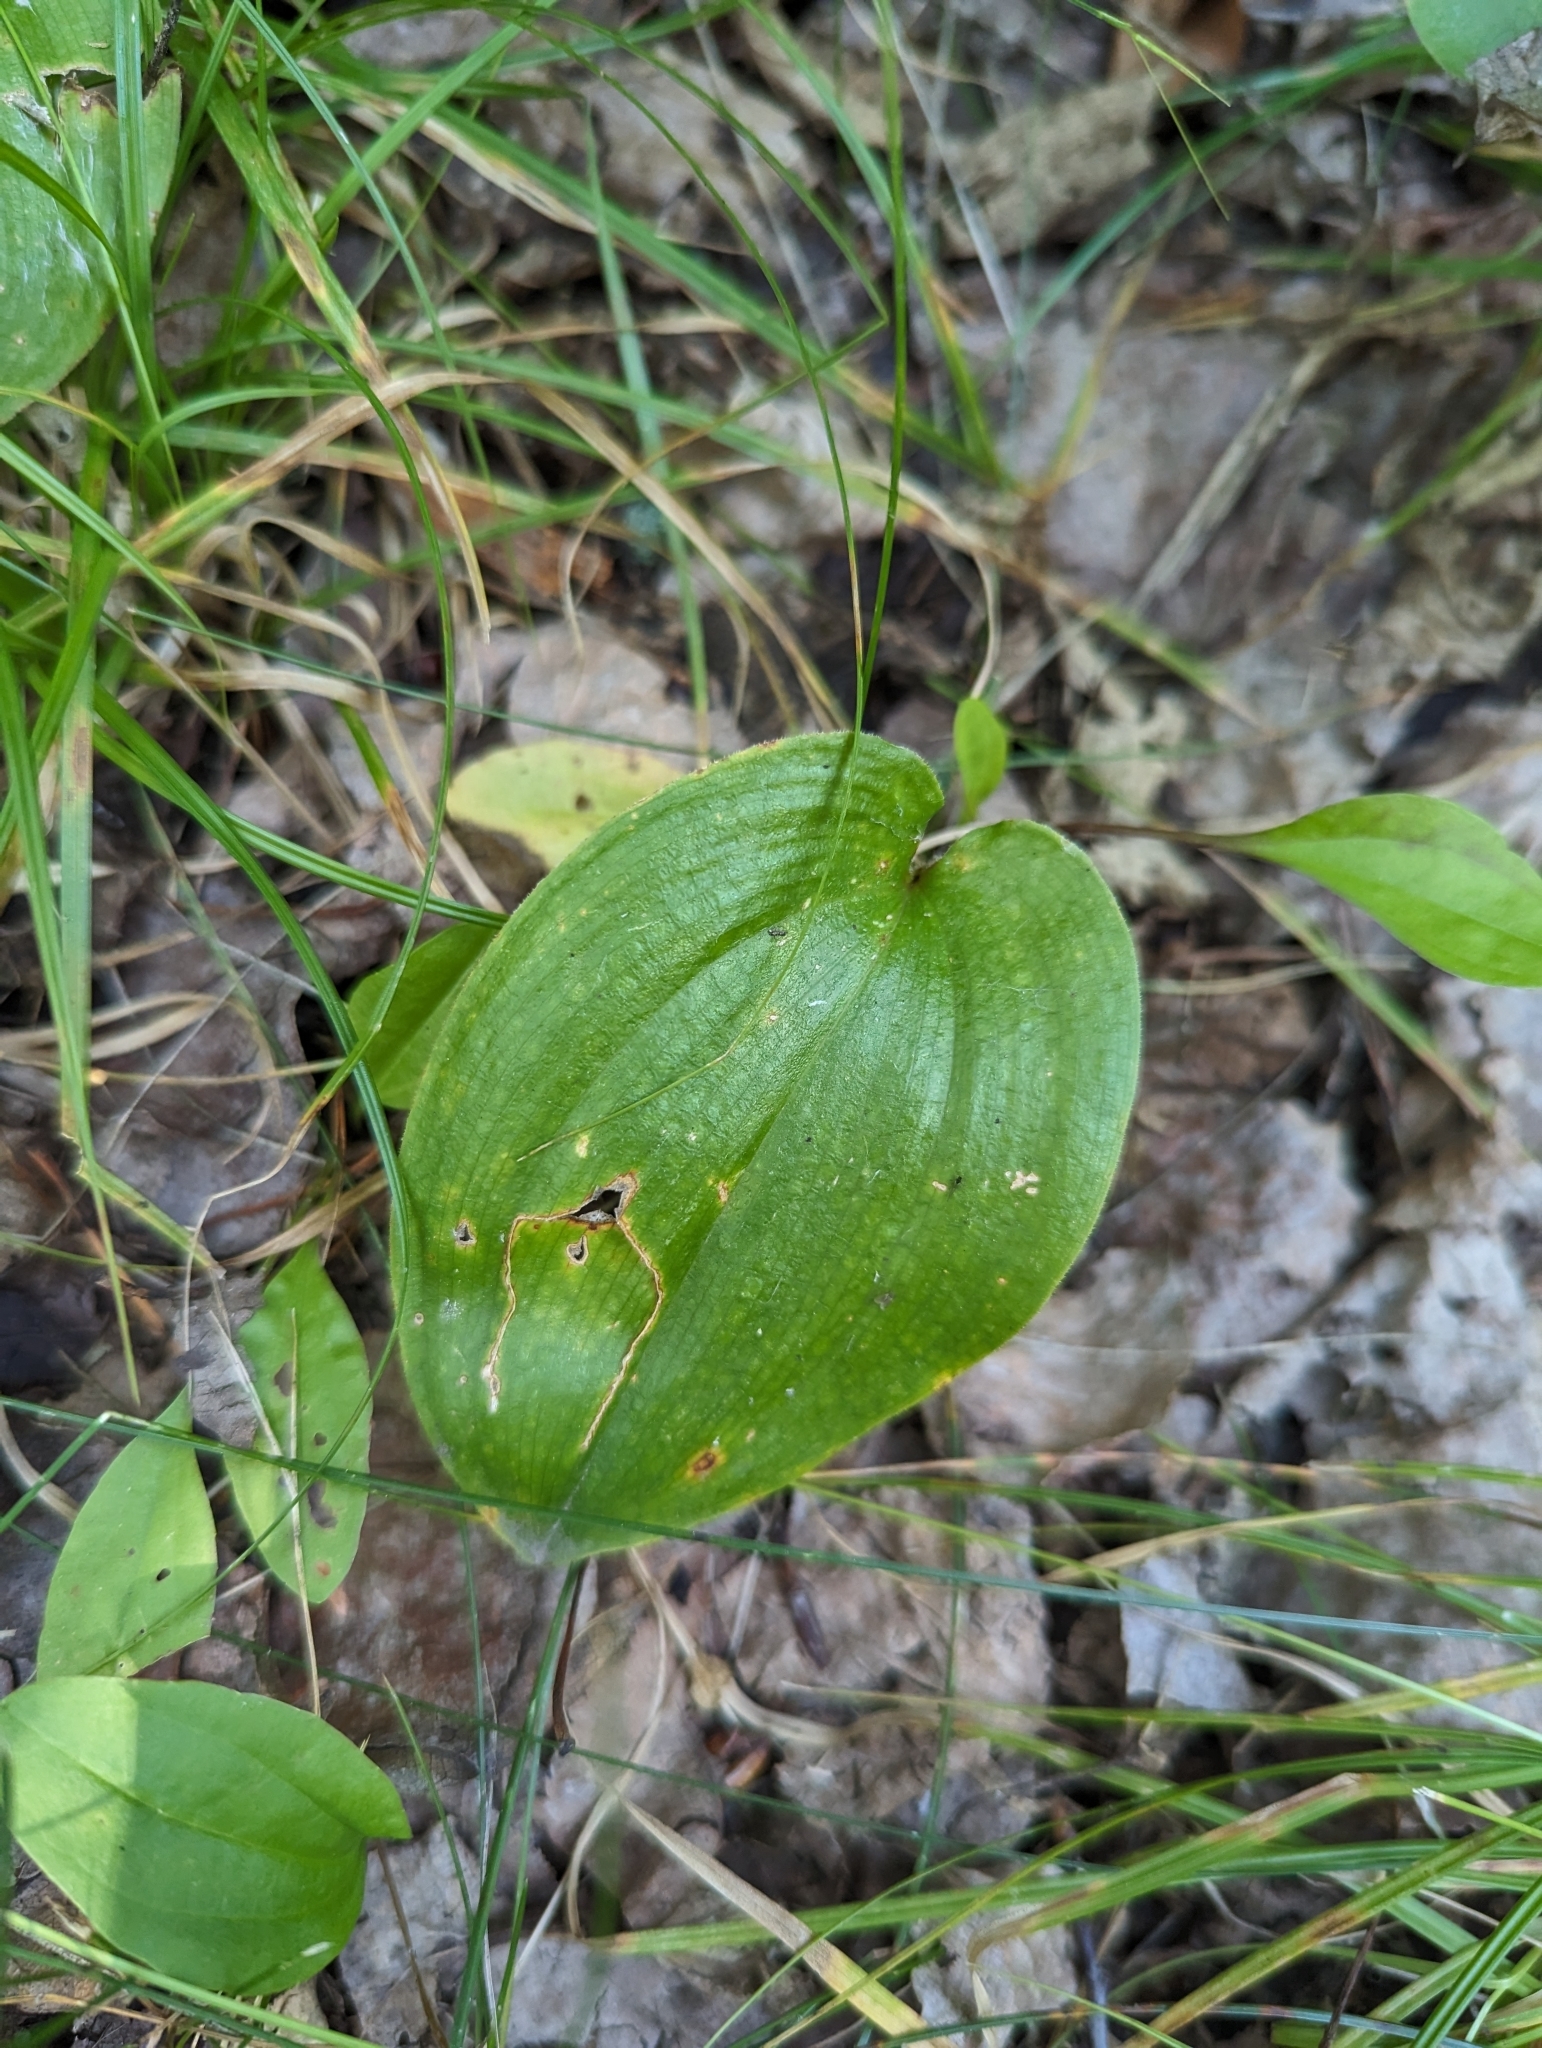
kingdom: Plantae
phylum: Tracheophyta
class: Liliopsida
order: Asparagales
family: Asparagaceae
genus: Maianthemum
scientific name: Maianthemum canadense
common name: False lily-of-the-valley
